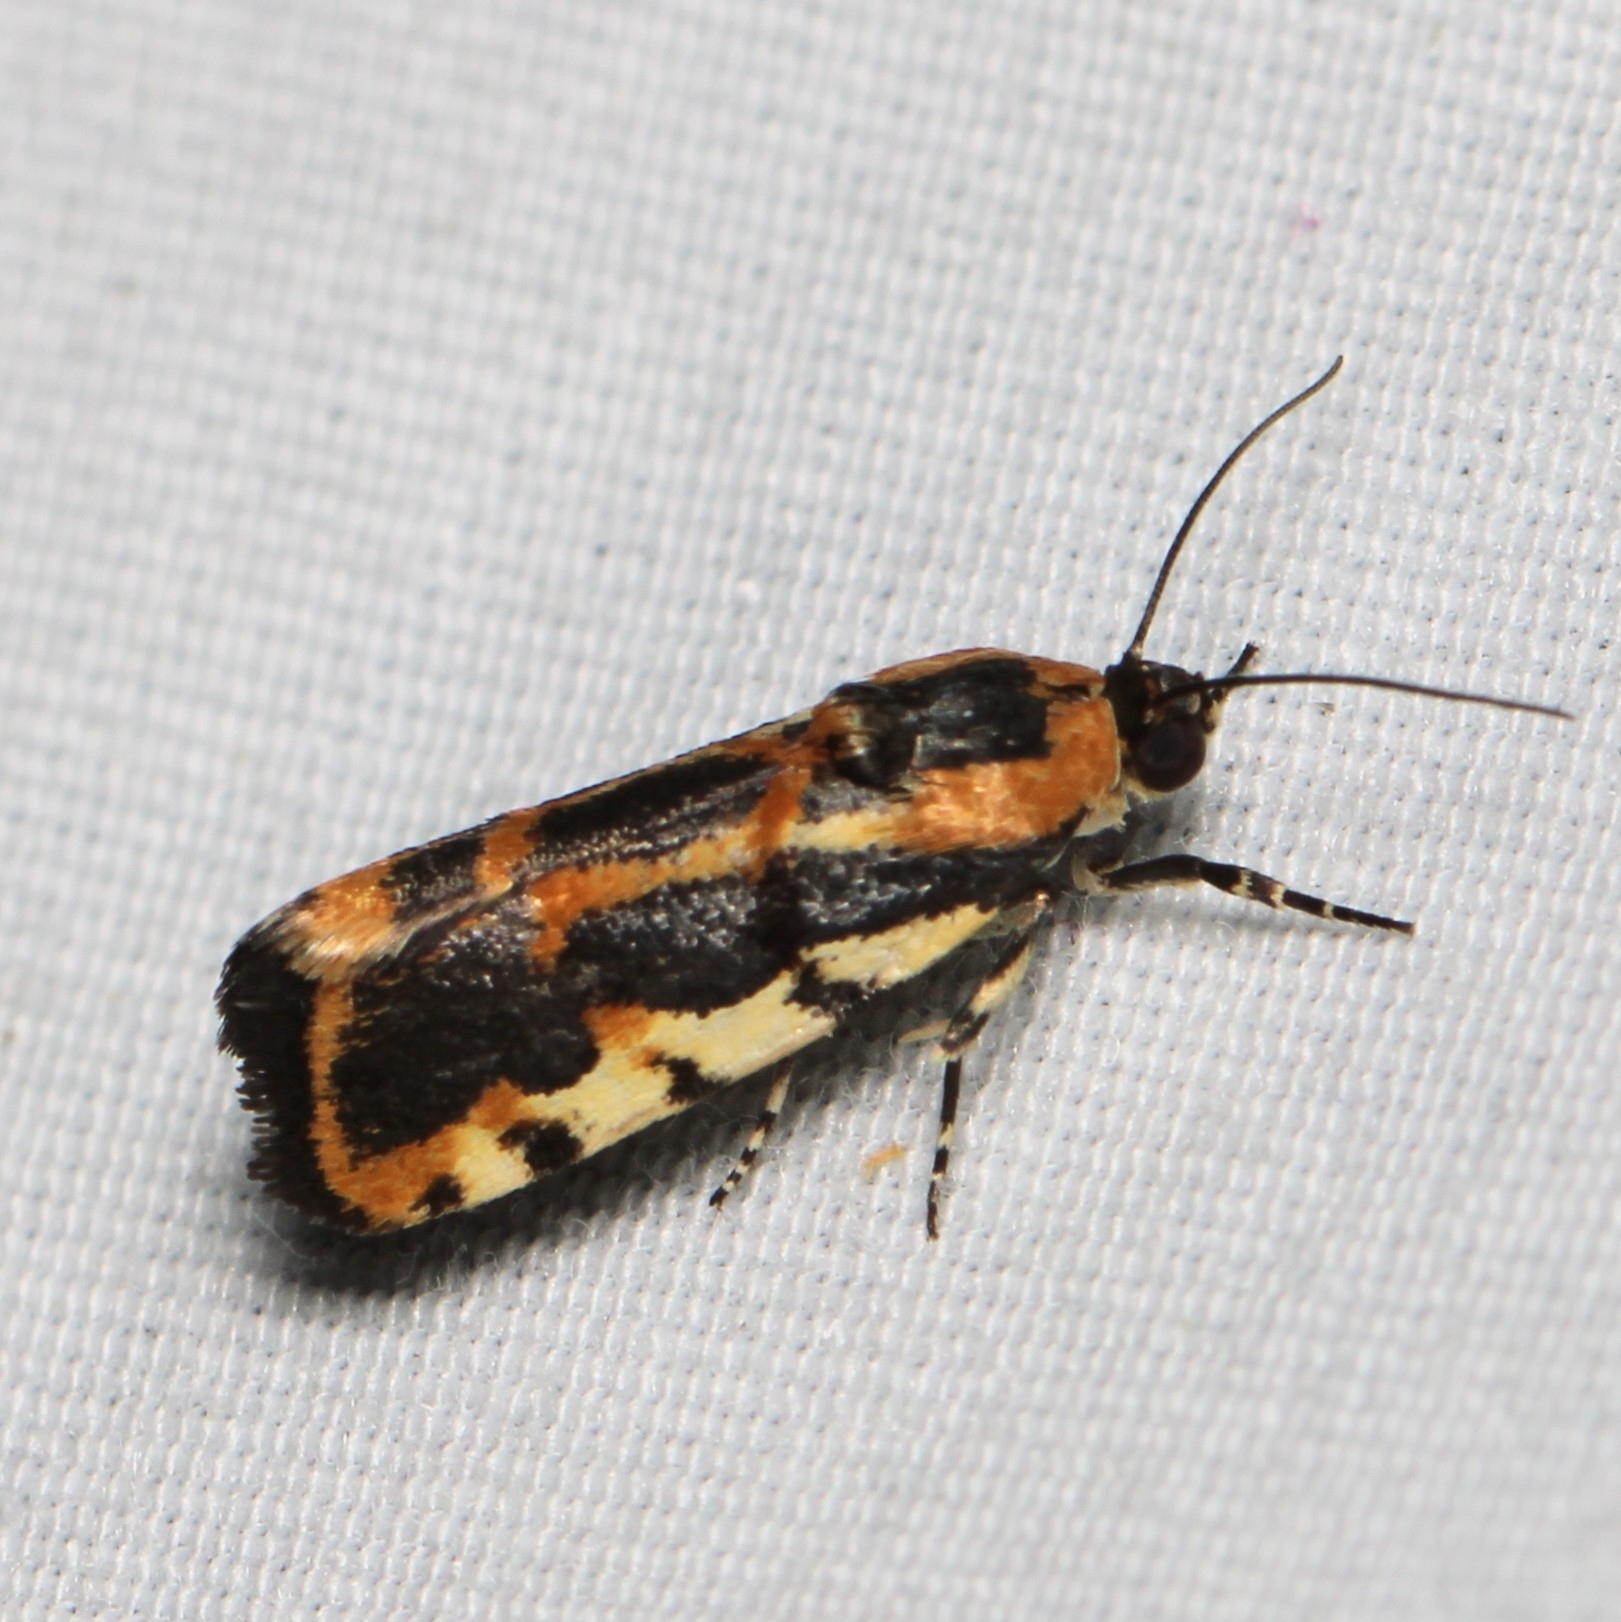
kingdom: Animalia
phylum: Arthropoda
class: Insecta
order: Lepidoptera
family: Noctuidae
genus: Acontia
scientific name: Acontia leo
